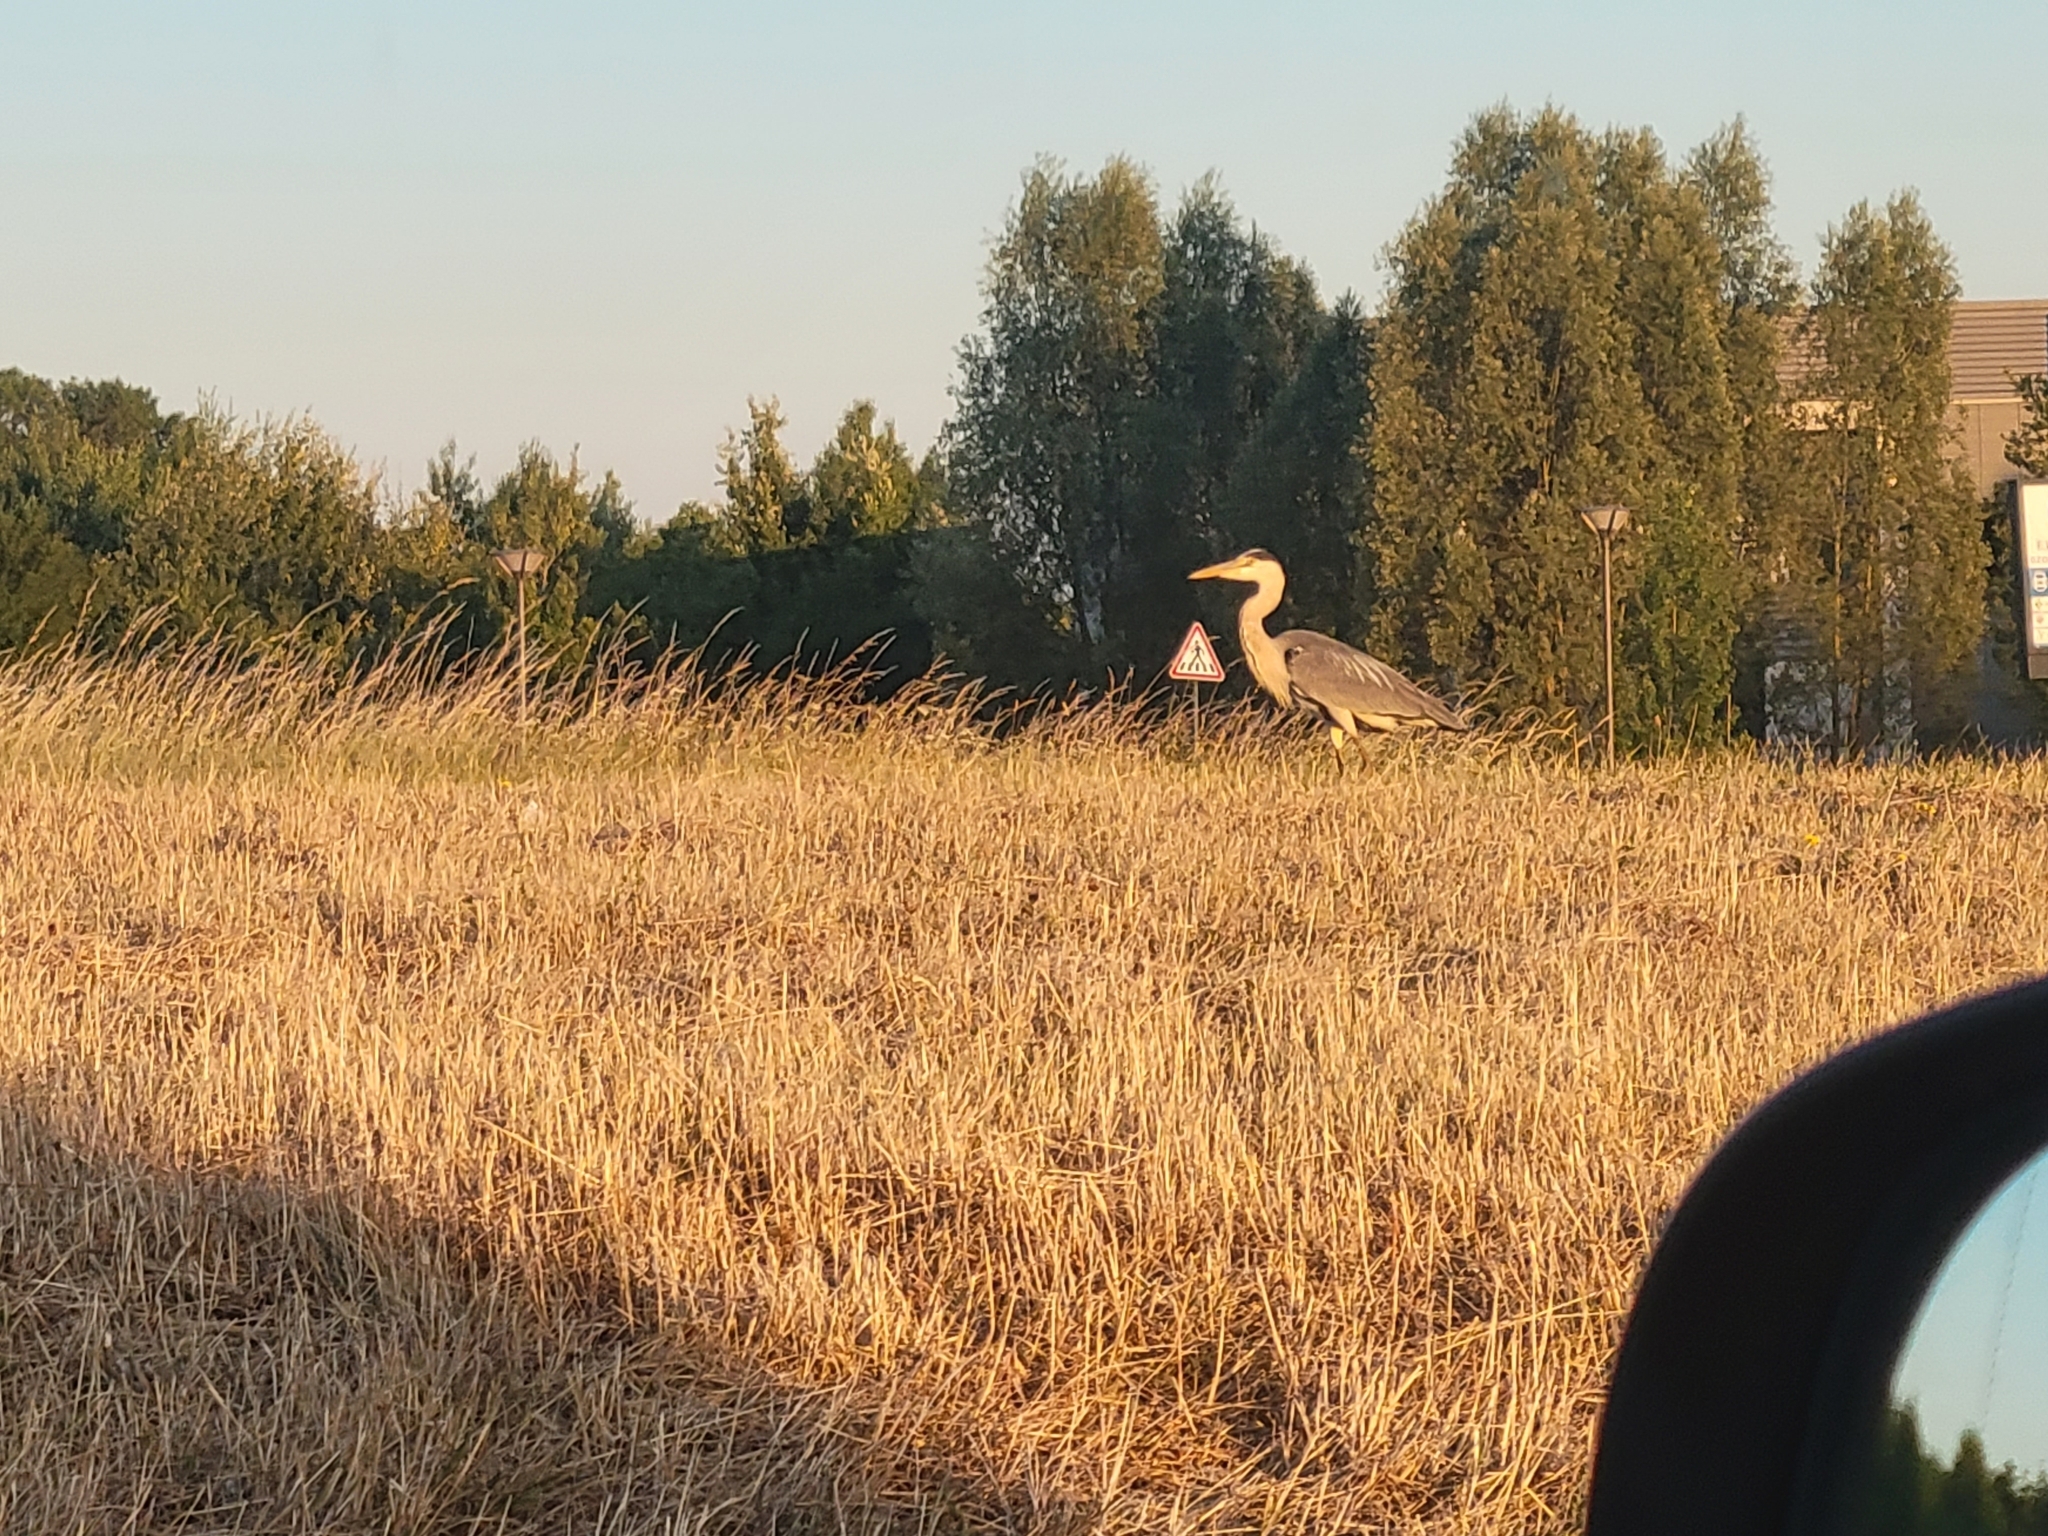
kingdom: Animalia
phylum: Chordata
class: Aves
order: Pelecaniformes
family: Ardeidae
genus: Ardea
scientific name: Ardea cinerea
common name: Grey heron
